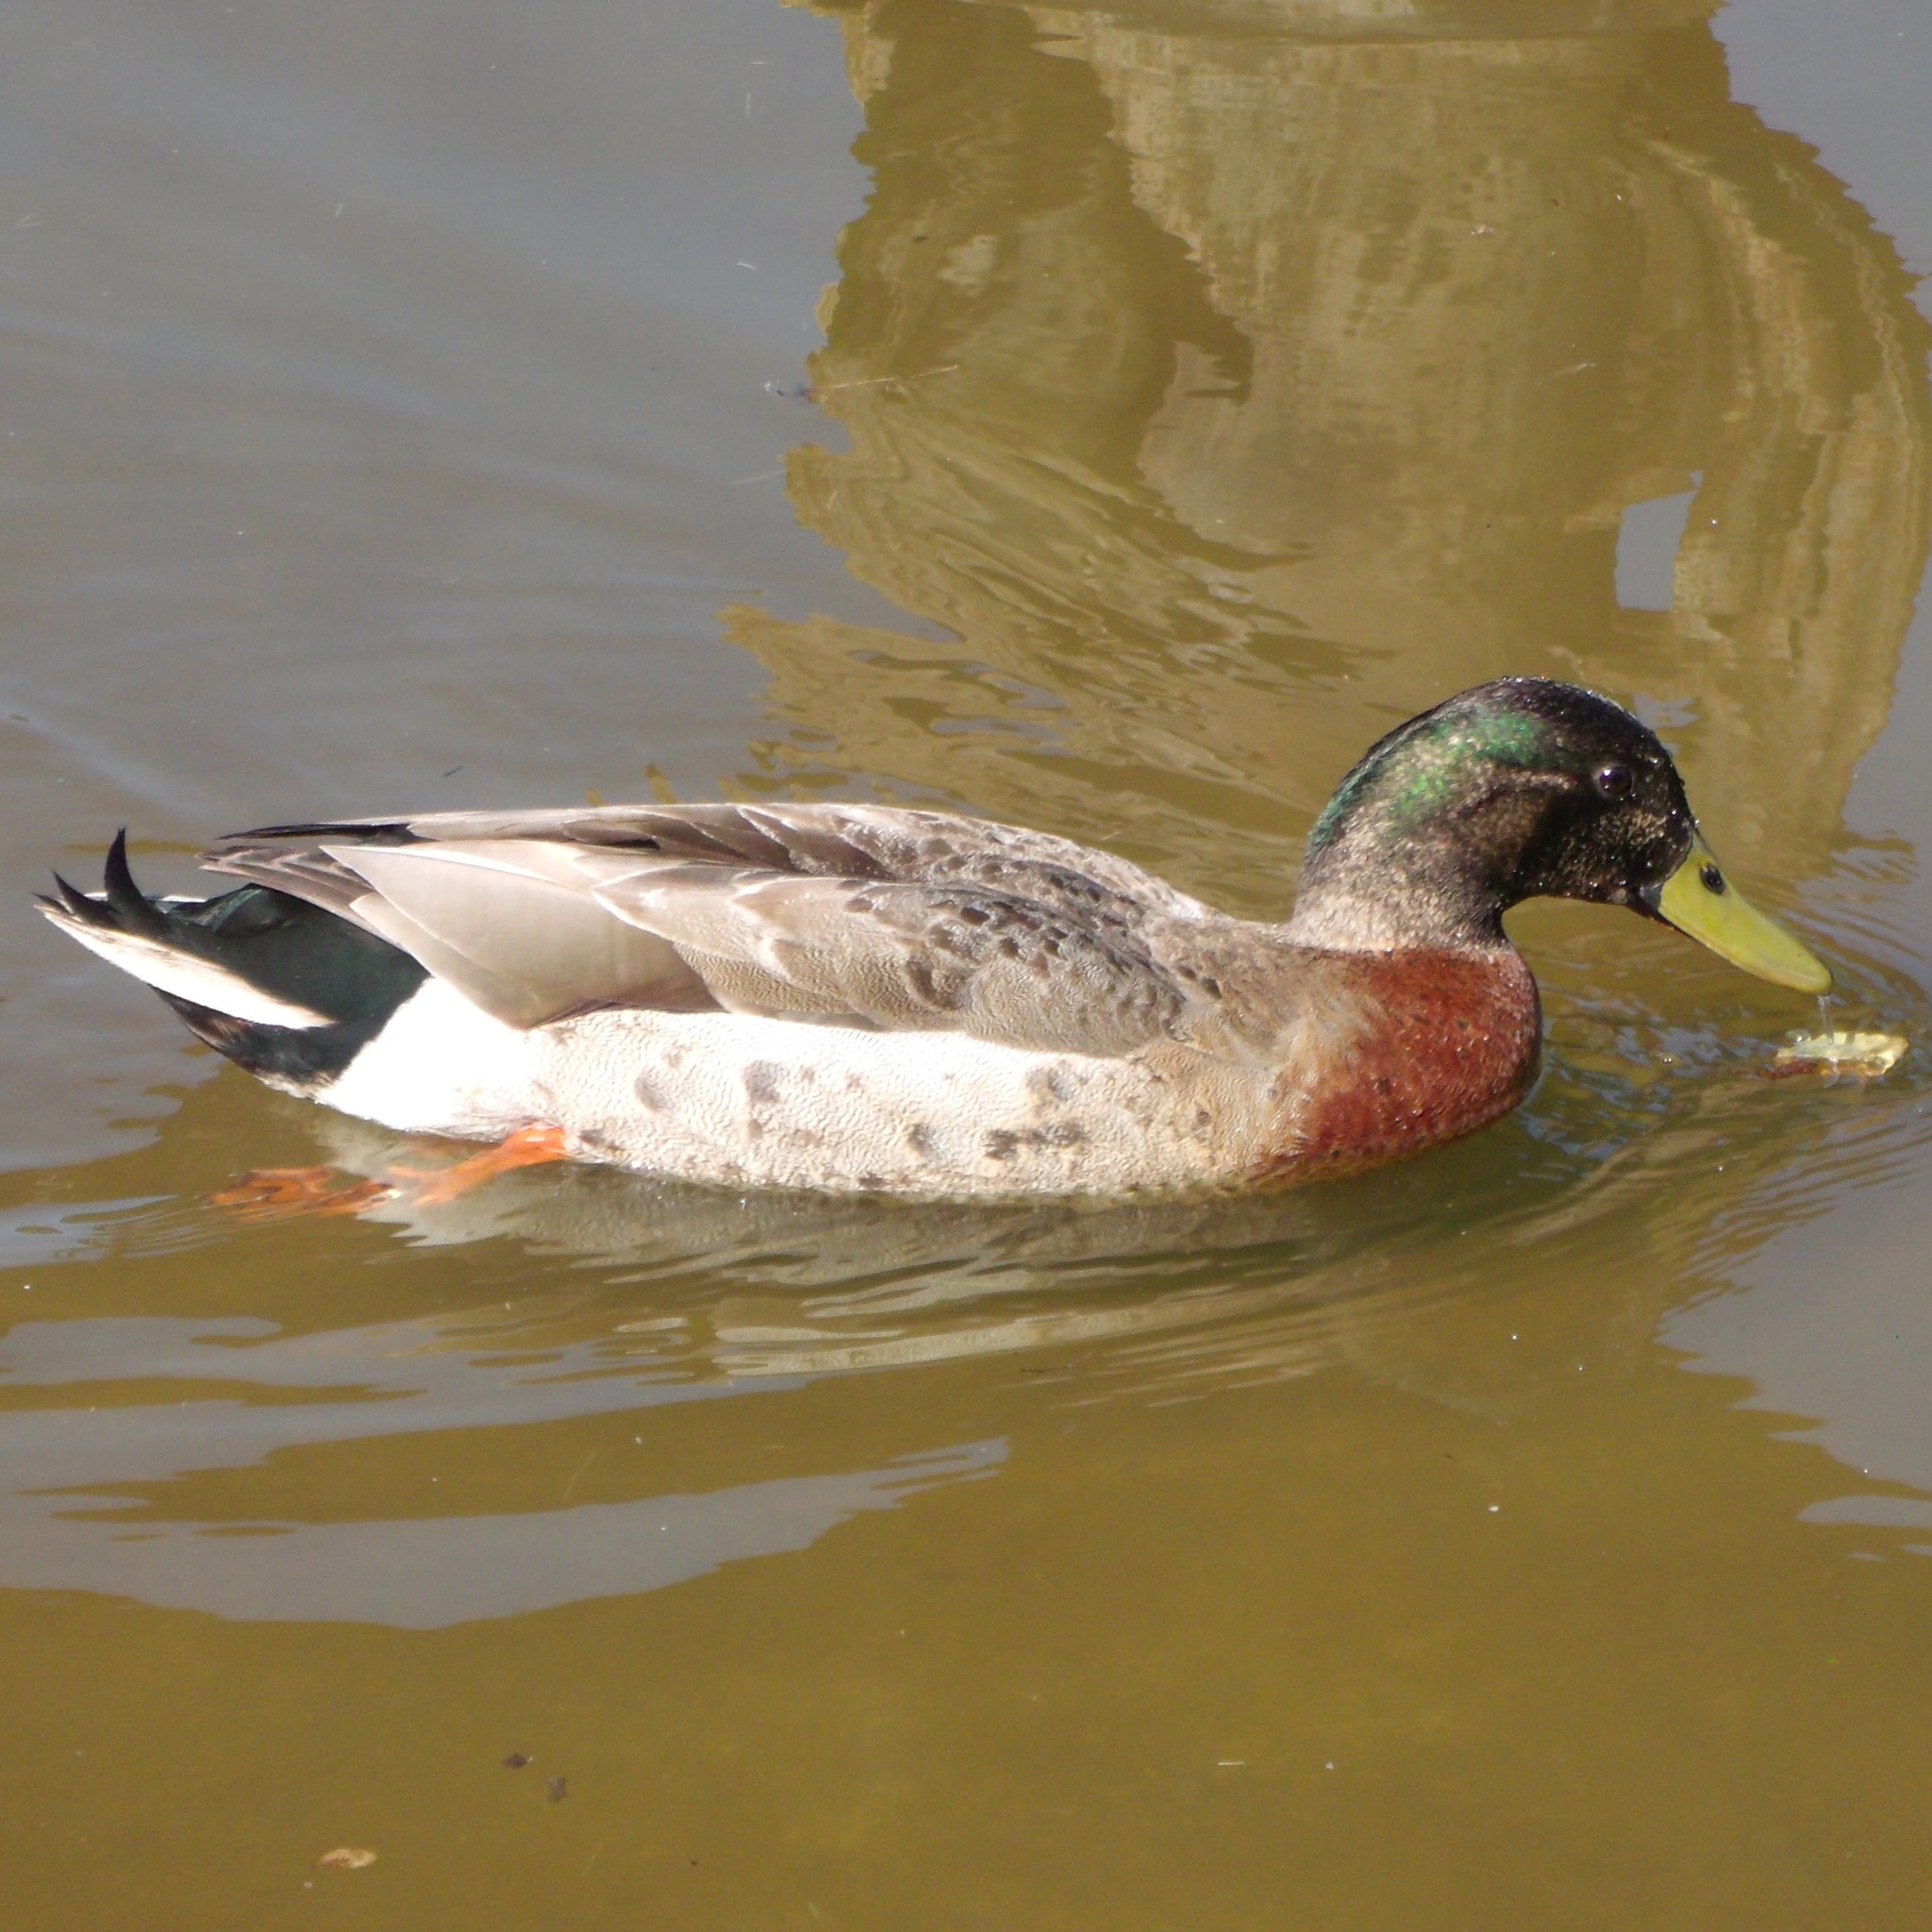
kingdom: Animalia
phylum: Chordata
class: Aves
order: Anseriformes
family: Anatidae
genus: Anas
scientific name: Anas
